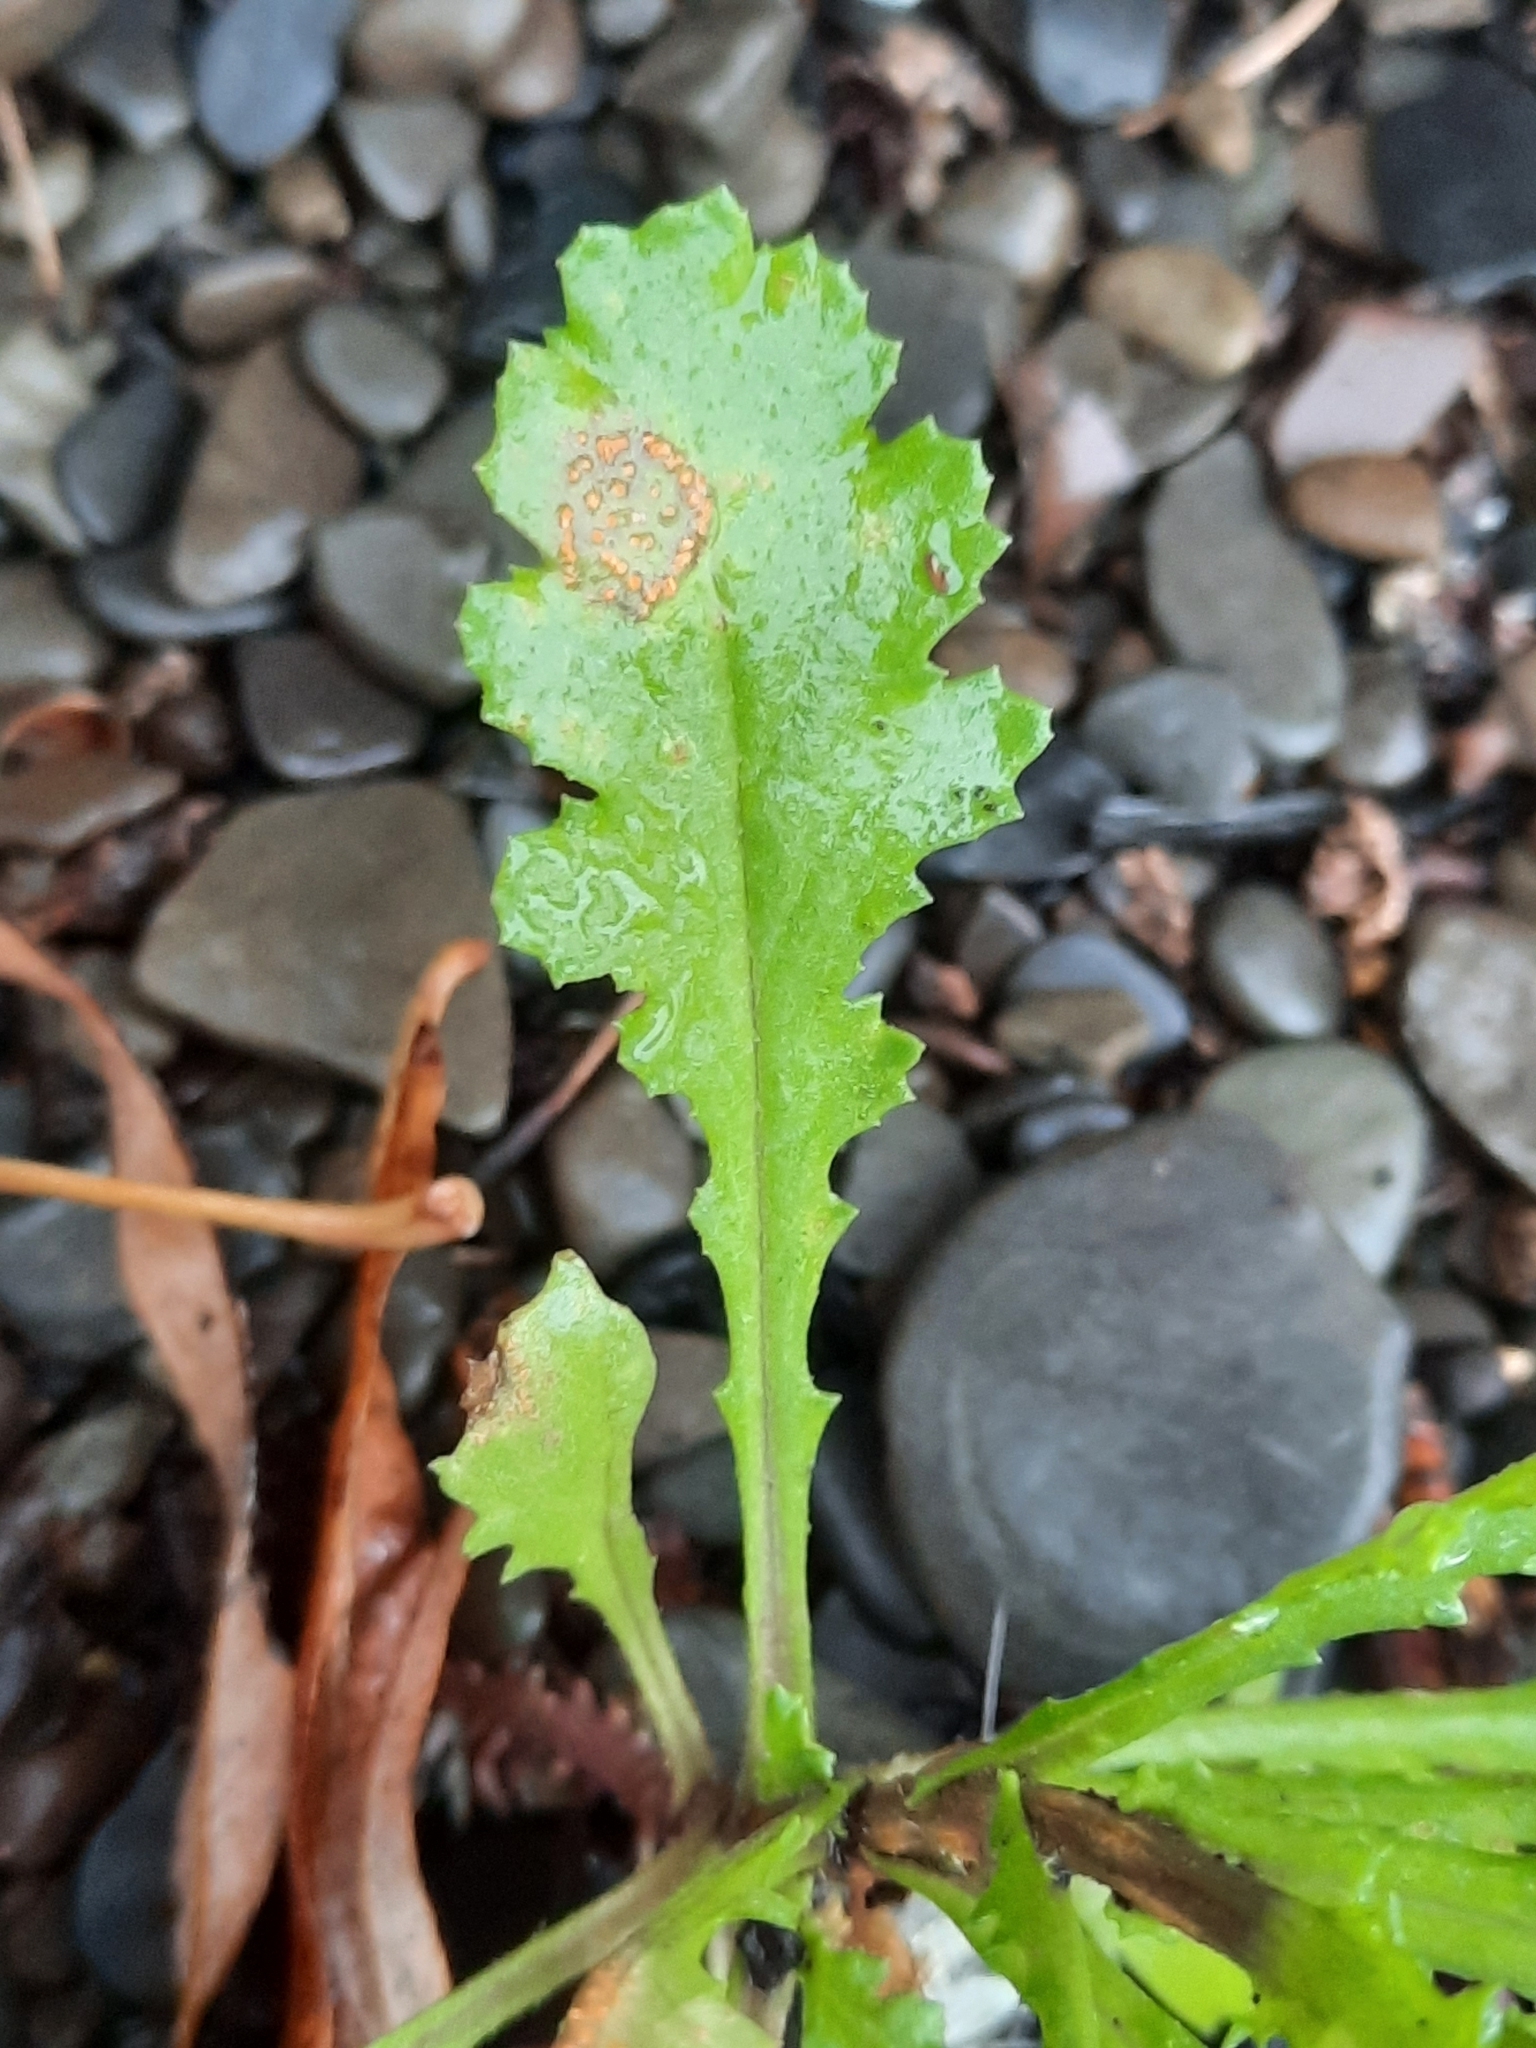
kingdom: Plantae
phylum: Tracheophyta
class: Magnoliopsida
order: Asterales
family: Asteraceae
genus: Senecio
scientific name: Senecio vulgaris
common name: Old-man-in-the-spring
